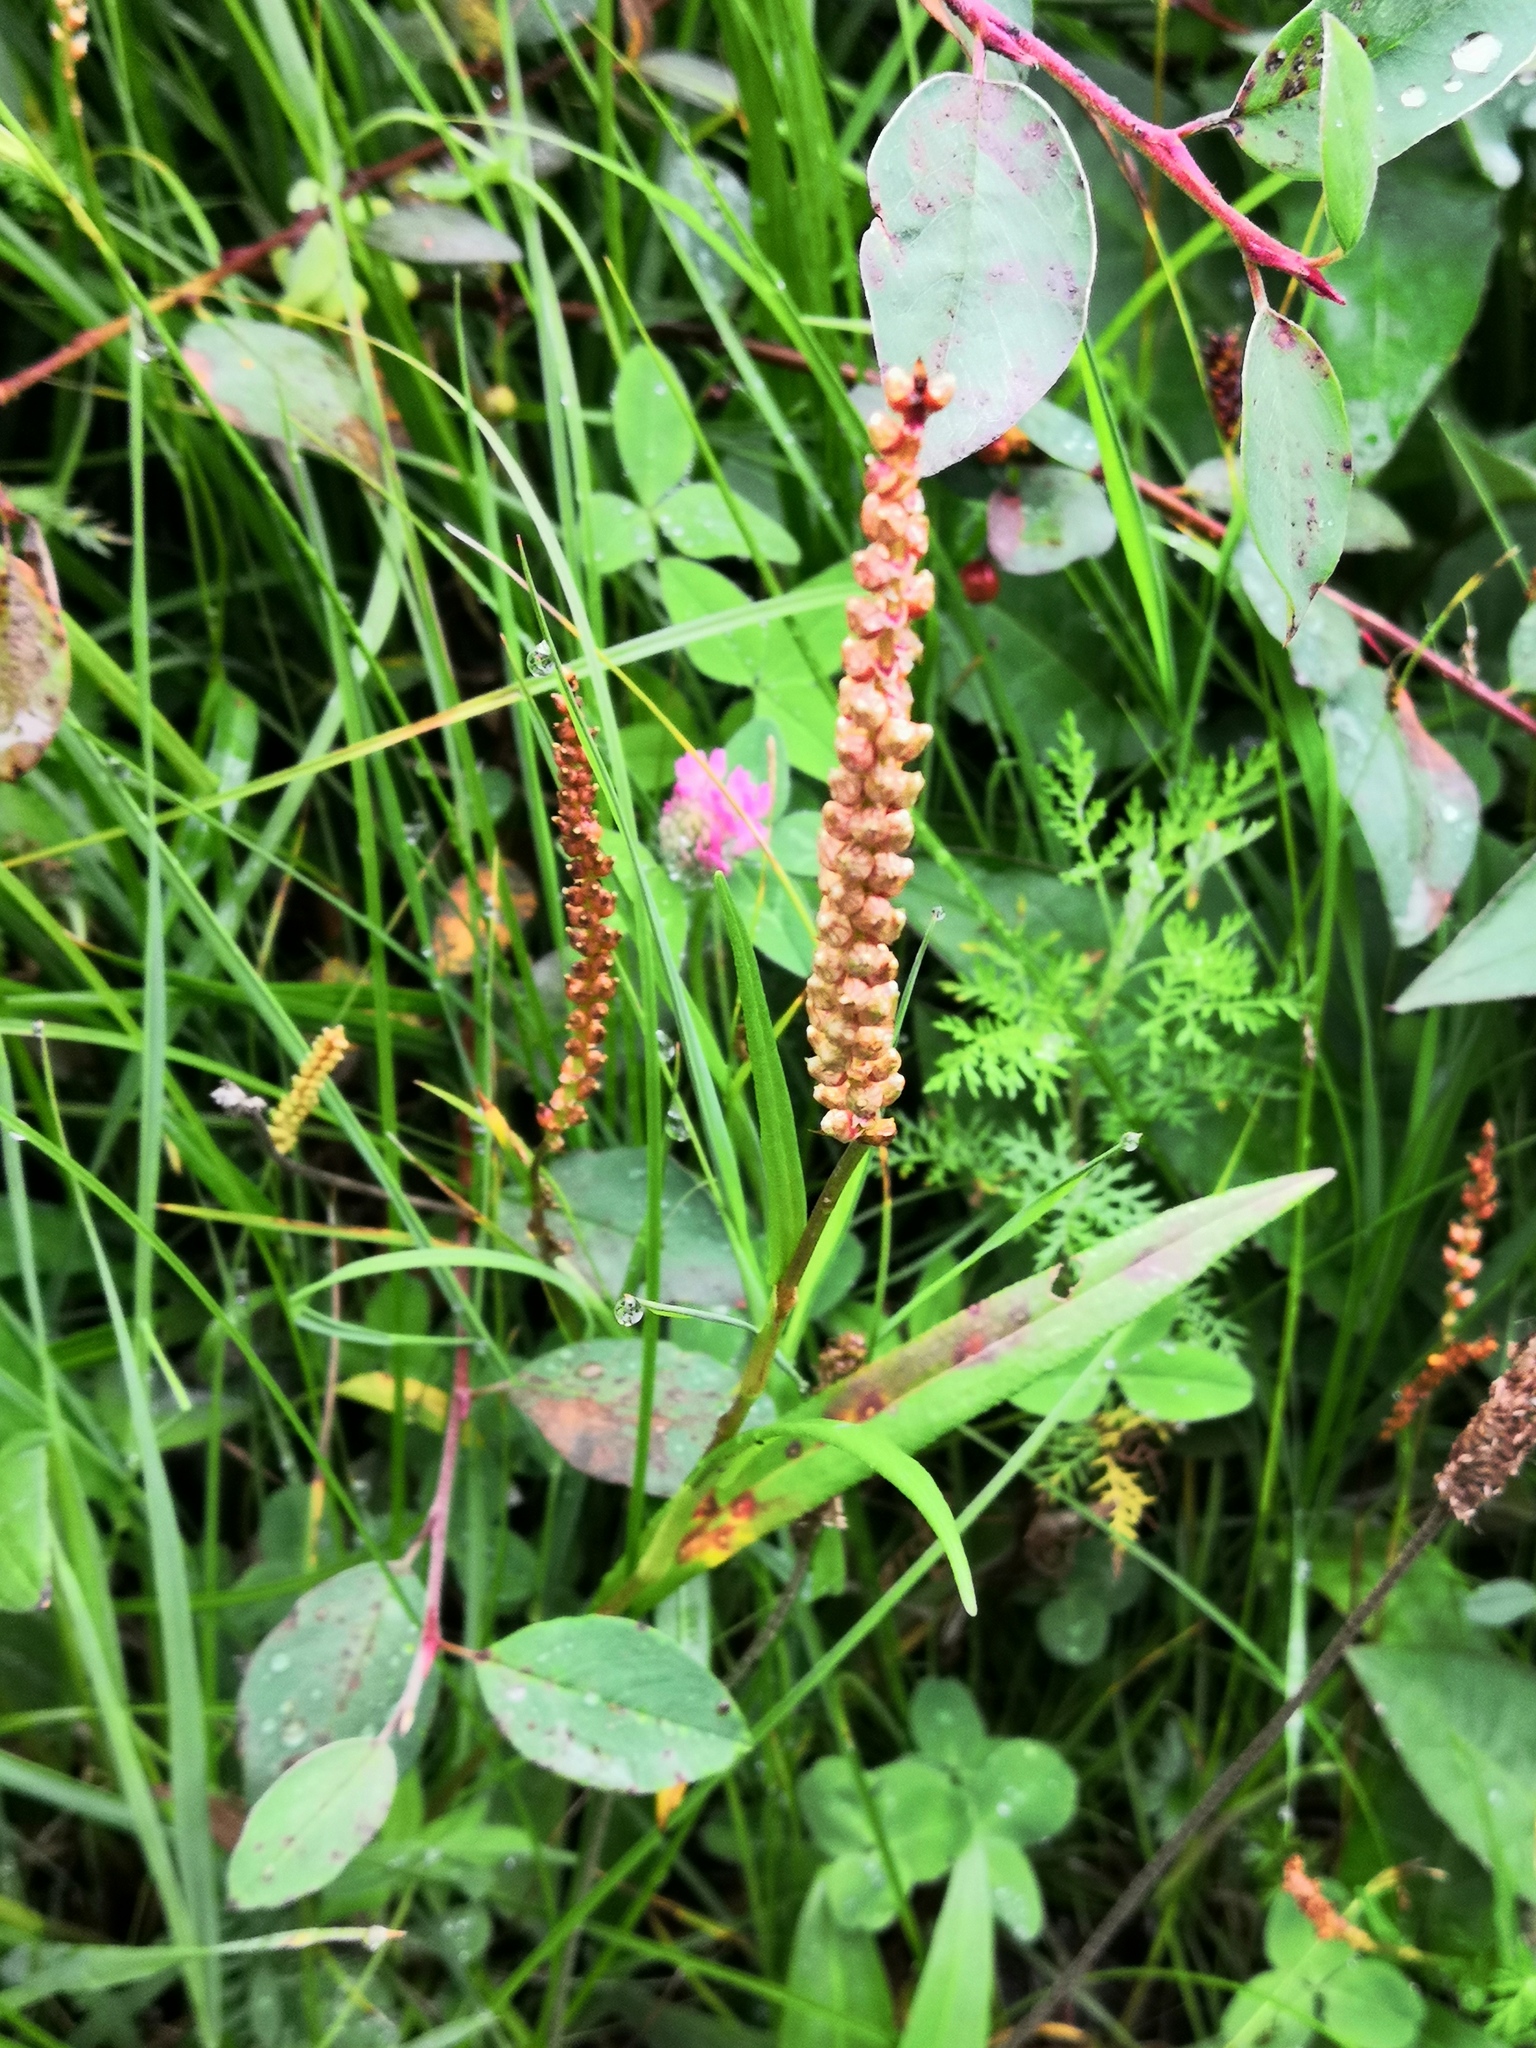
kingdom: Plantae
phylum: Tracheophyta
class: Magnoliopsida
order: Caryophyllales
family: Polygonaceae
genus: Bistorta
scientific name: Bistorta vivipara
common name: Alpine bistort
